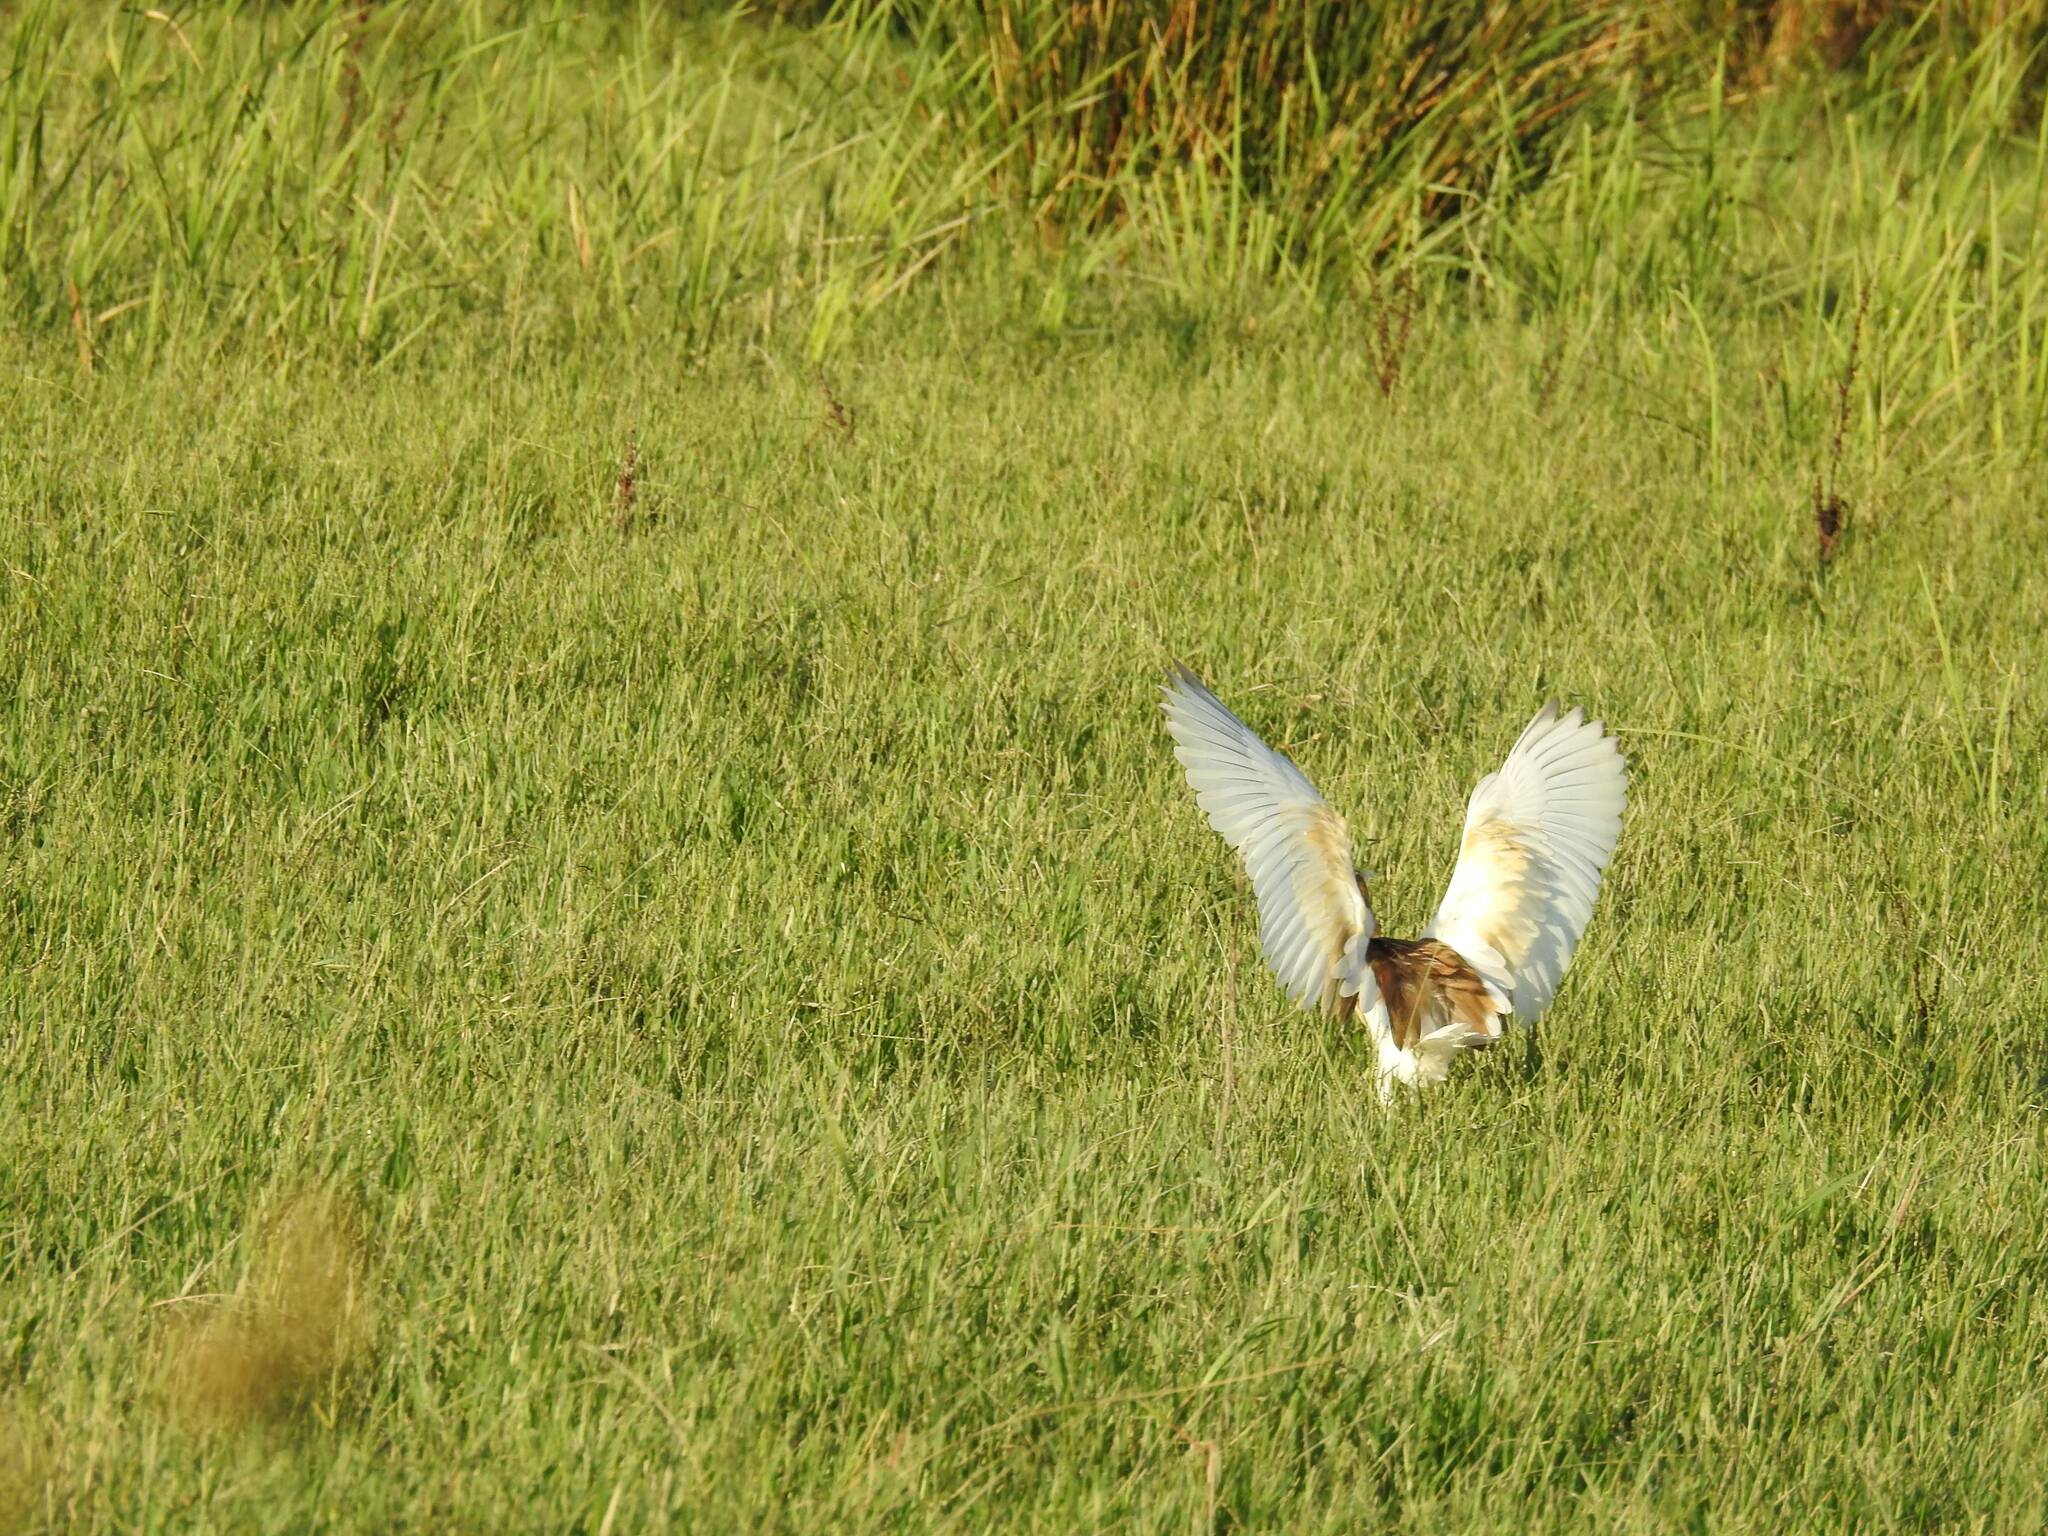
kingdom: Animalia
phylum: Chordata
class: Aves
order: Pelecaniformes
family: Ardeidae
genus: Ardeola
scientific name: Ardeola ralloides
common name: Squacco heron
